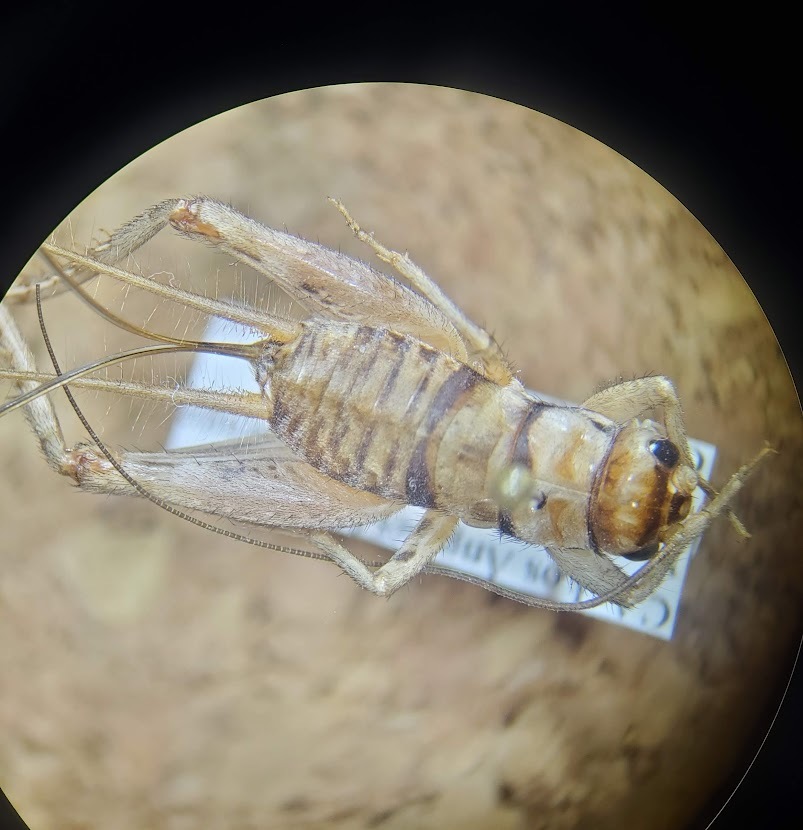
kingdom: Animalia
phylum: Arthropoda
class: Insecta
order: Orthoptera
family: Gryllidae
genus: Gryllodes
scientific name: Gryllodes sigillatus
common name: Tropical house cricket
